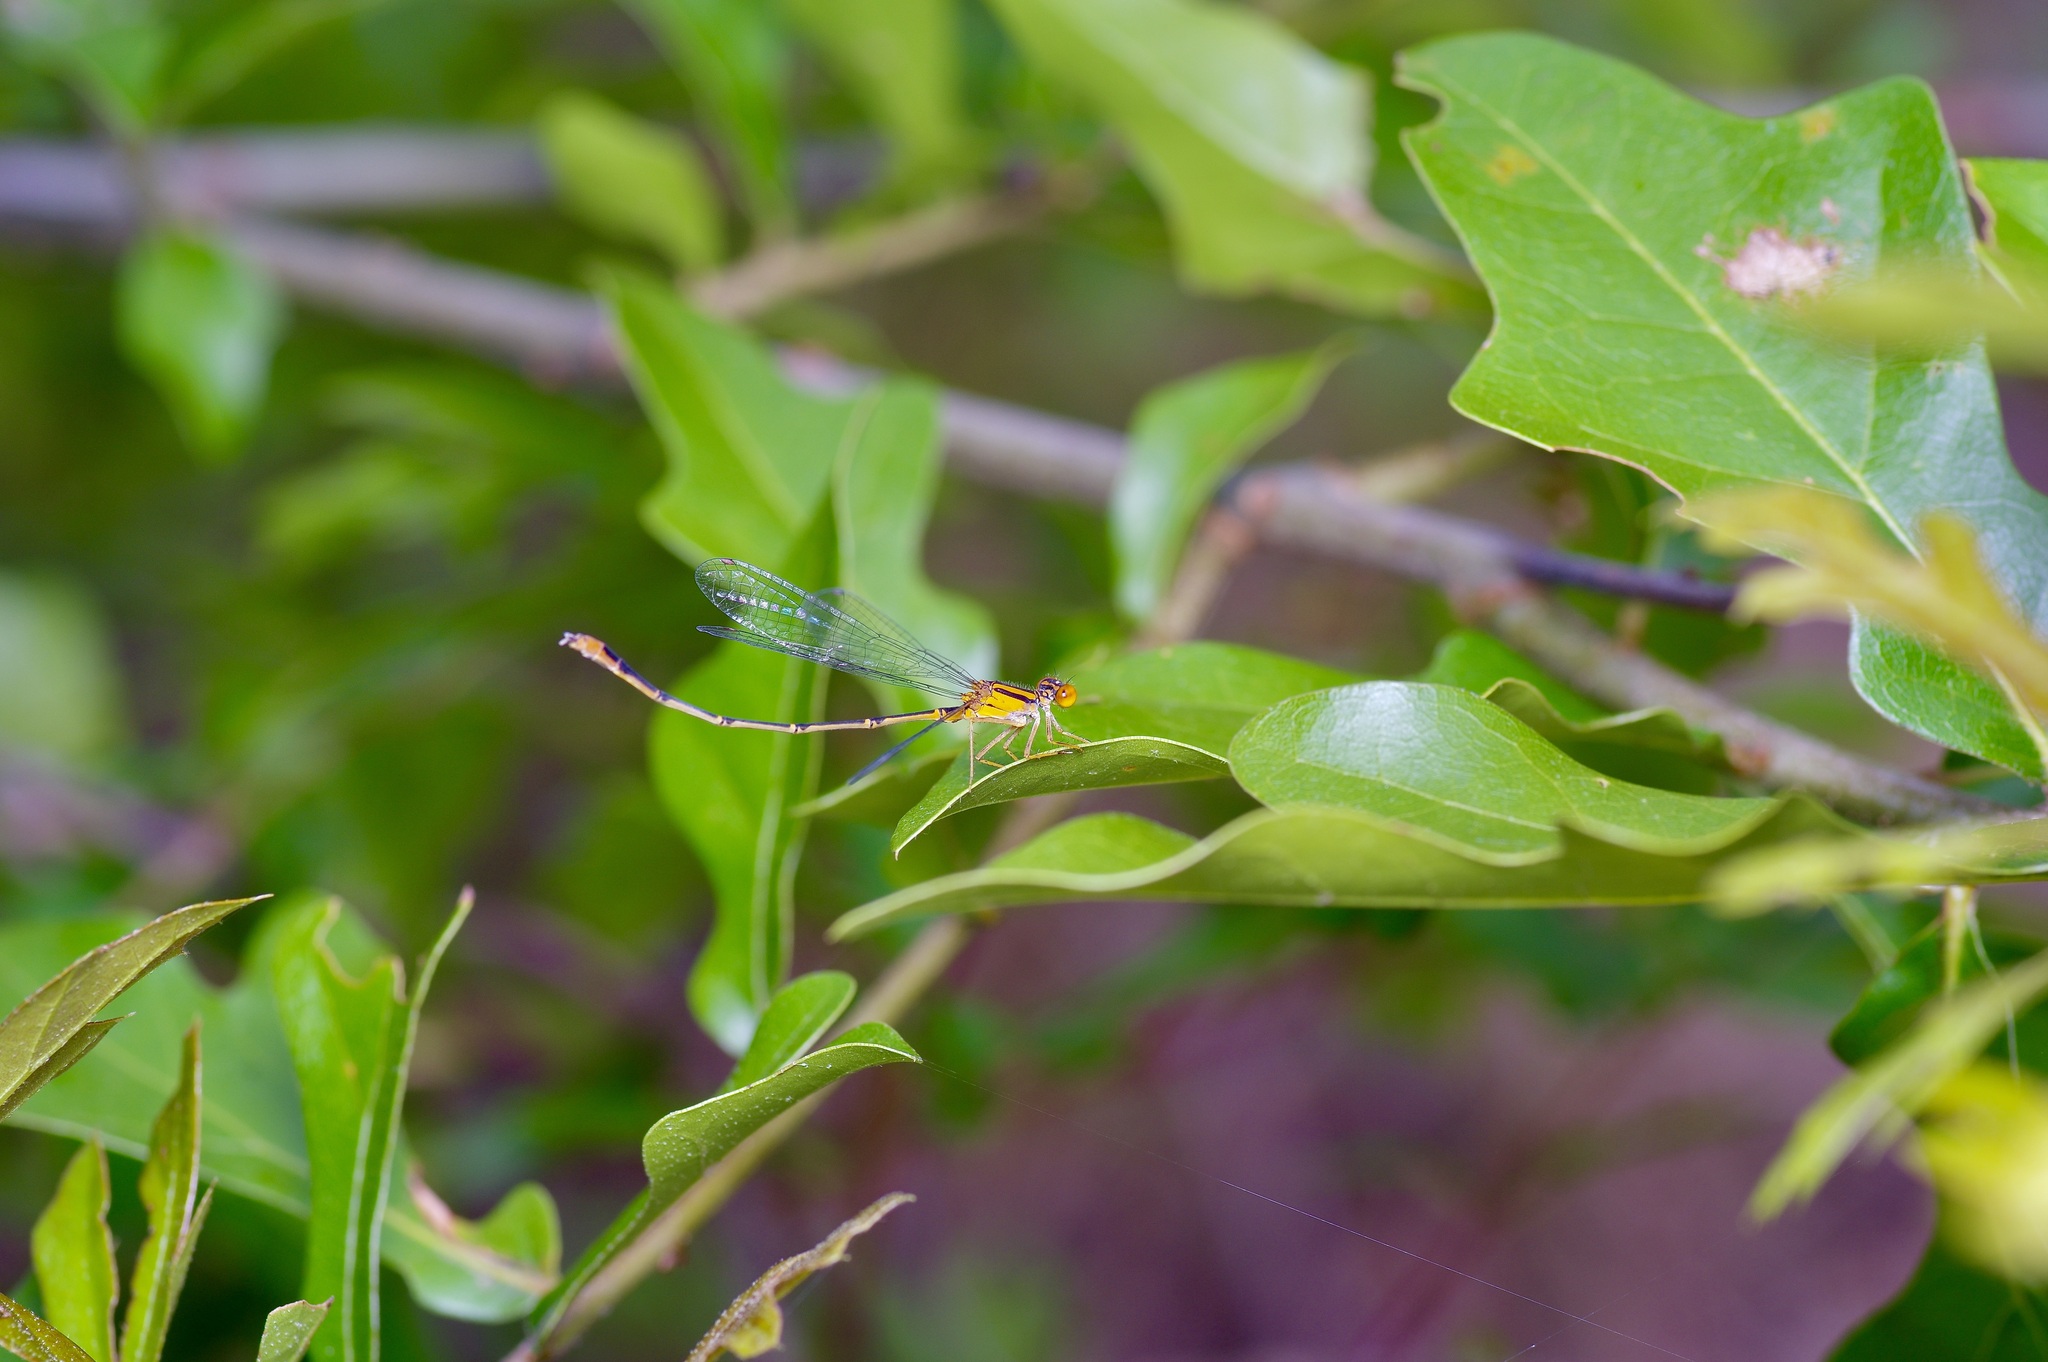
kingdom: Animalia
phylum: Arthropoda
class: Insecta
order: Odonata
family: Coenagrionidae
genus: Enallagma
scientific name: Enallagma signatum
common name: Orange bluet
